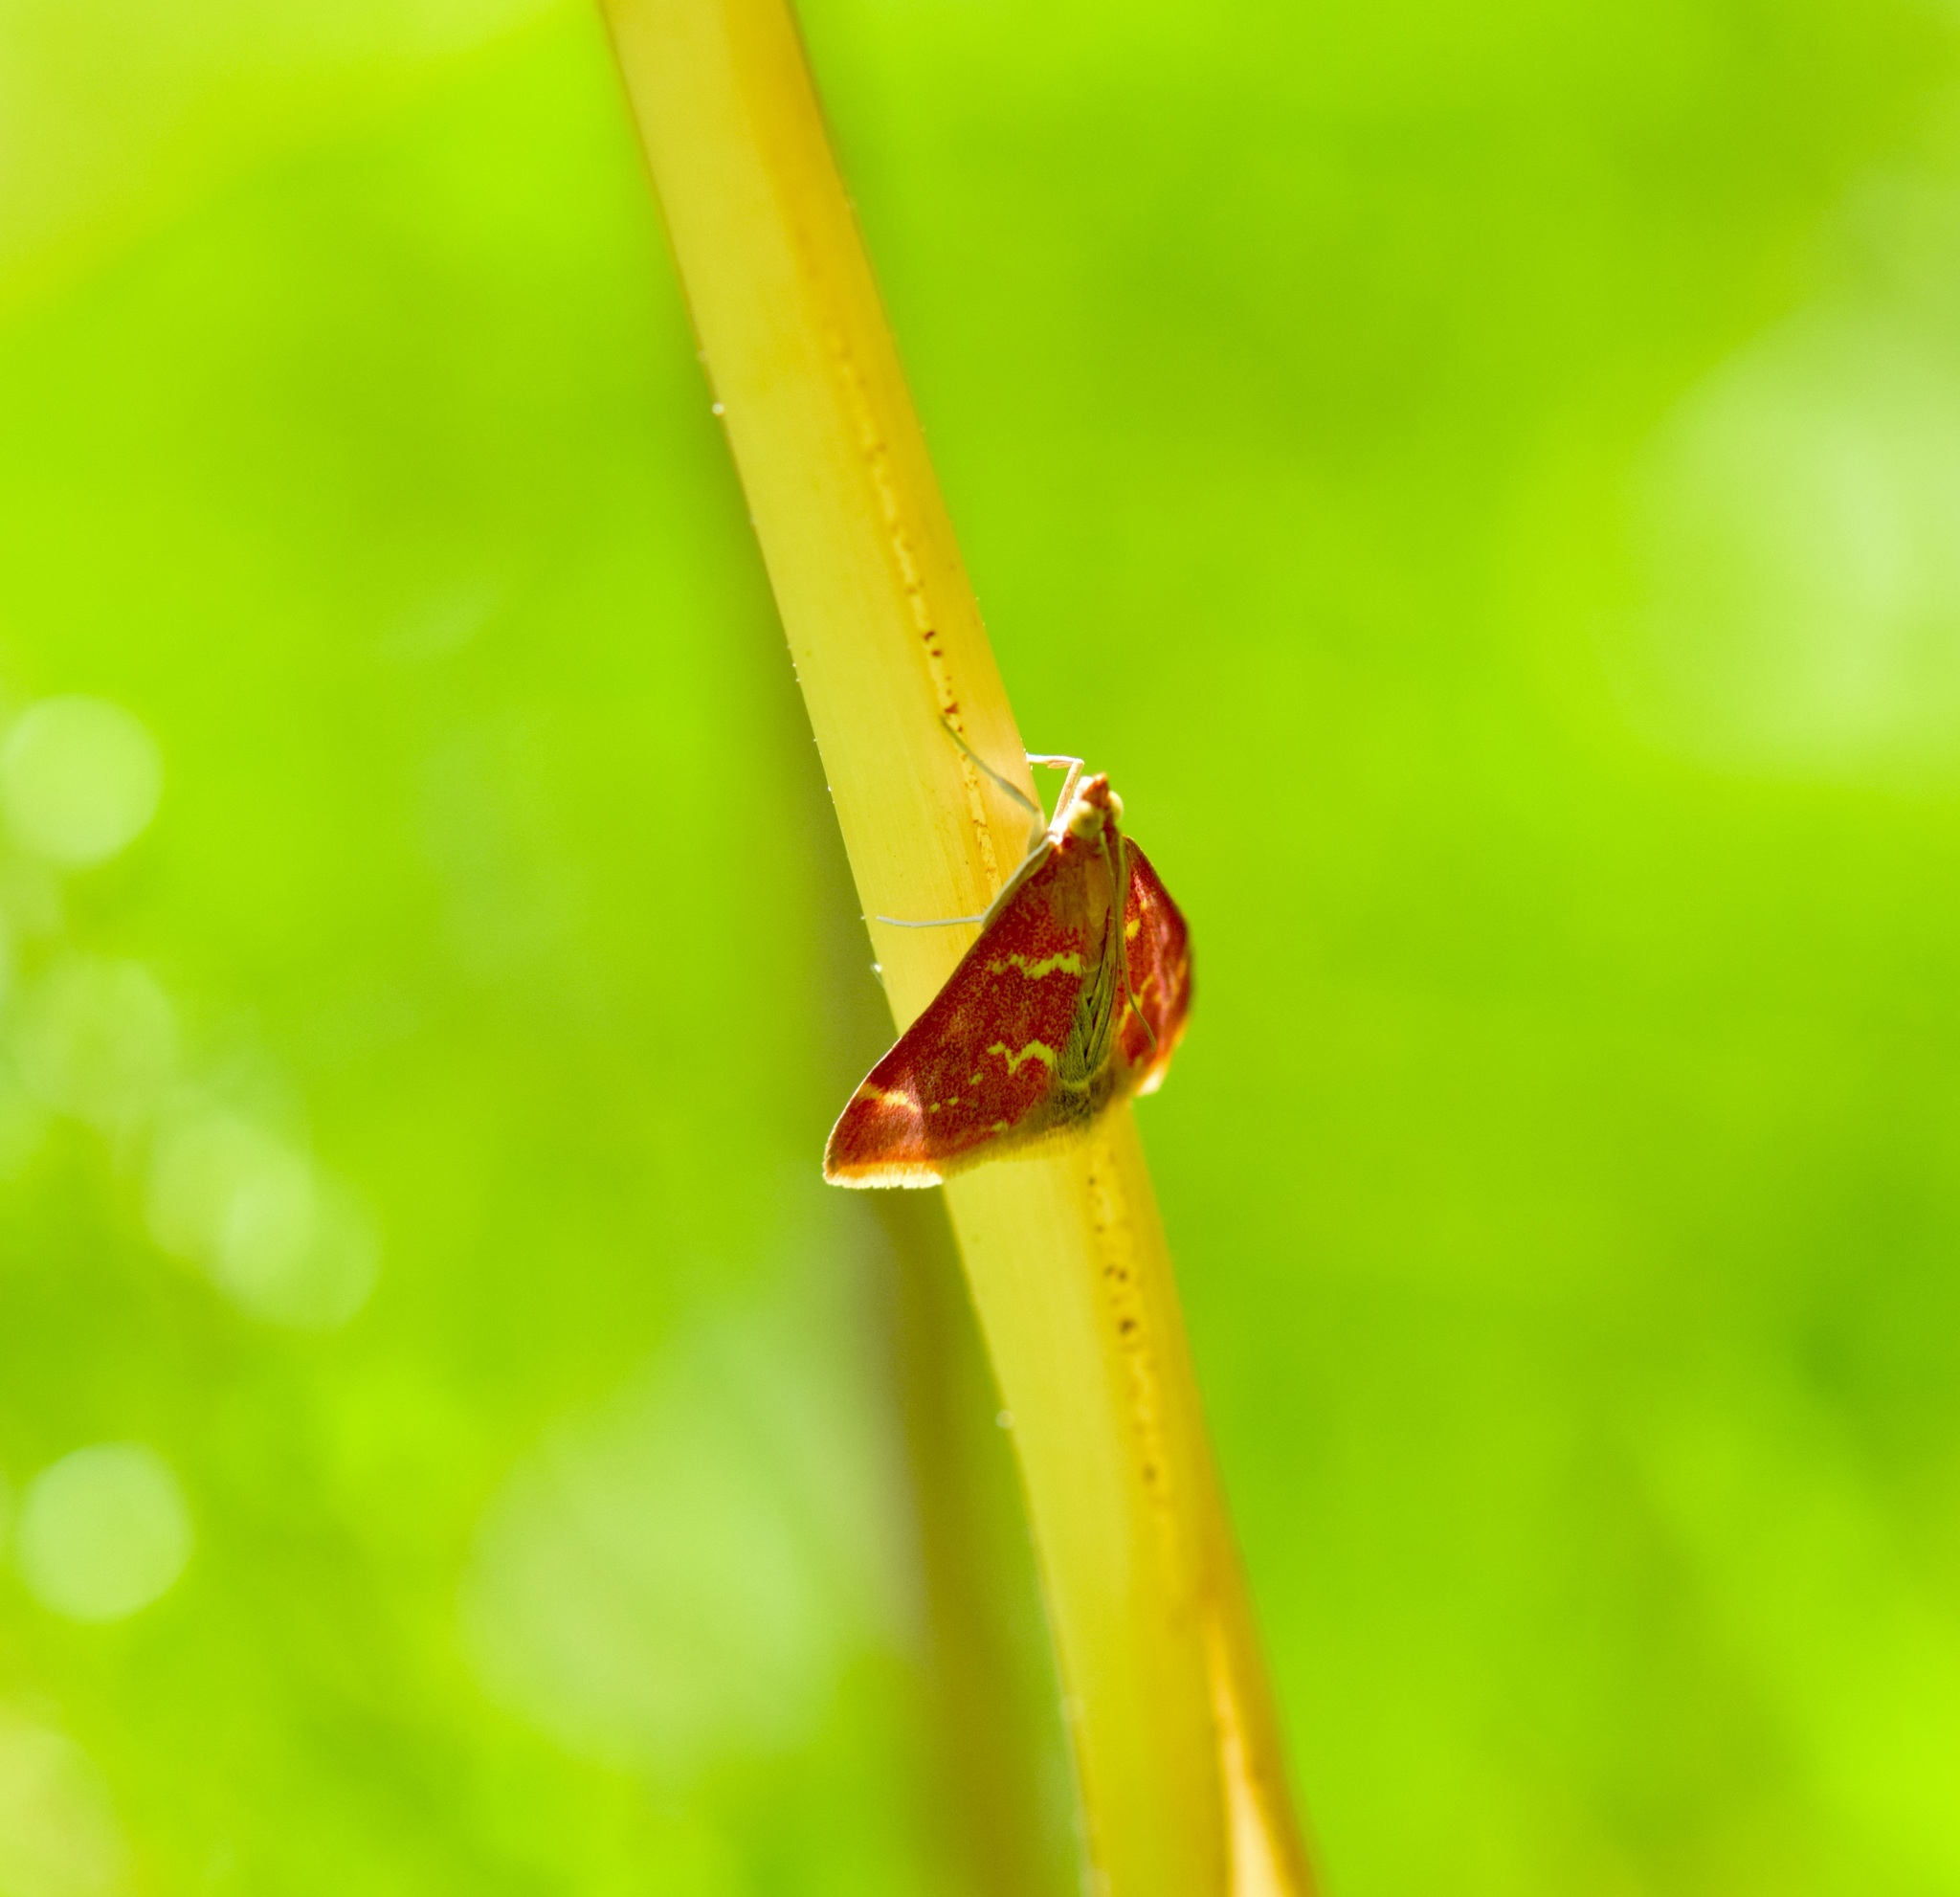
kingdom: Animalia
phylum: Arthropoda
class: Insecta
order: Lepidoptera
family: Crambidae
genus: Pyrausta
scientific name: Pyrausta signatalis
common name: Raspberry pyrausta moth
